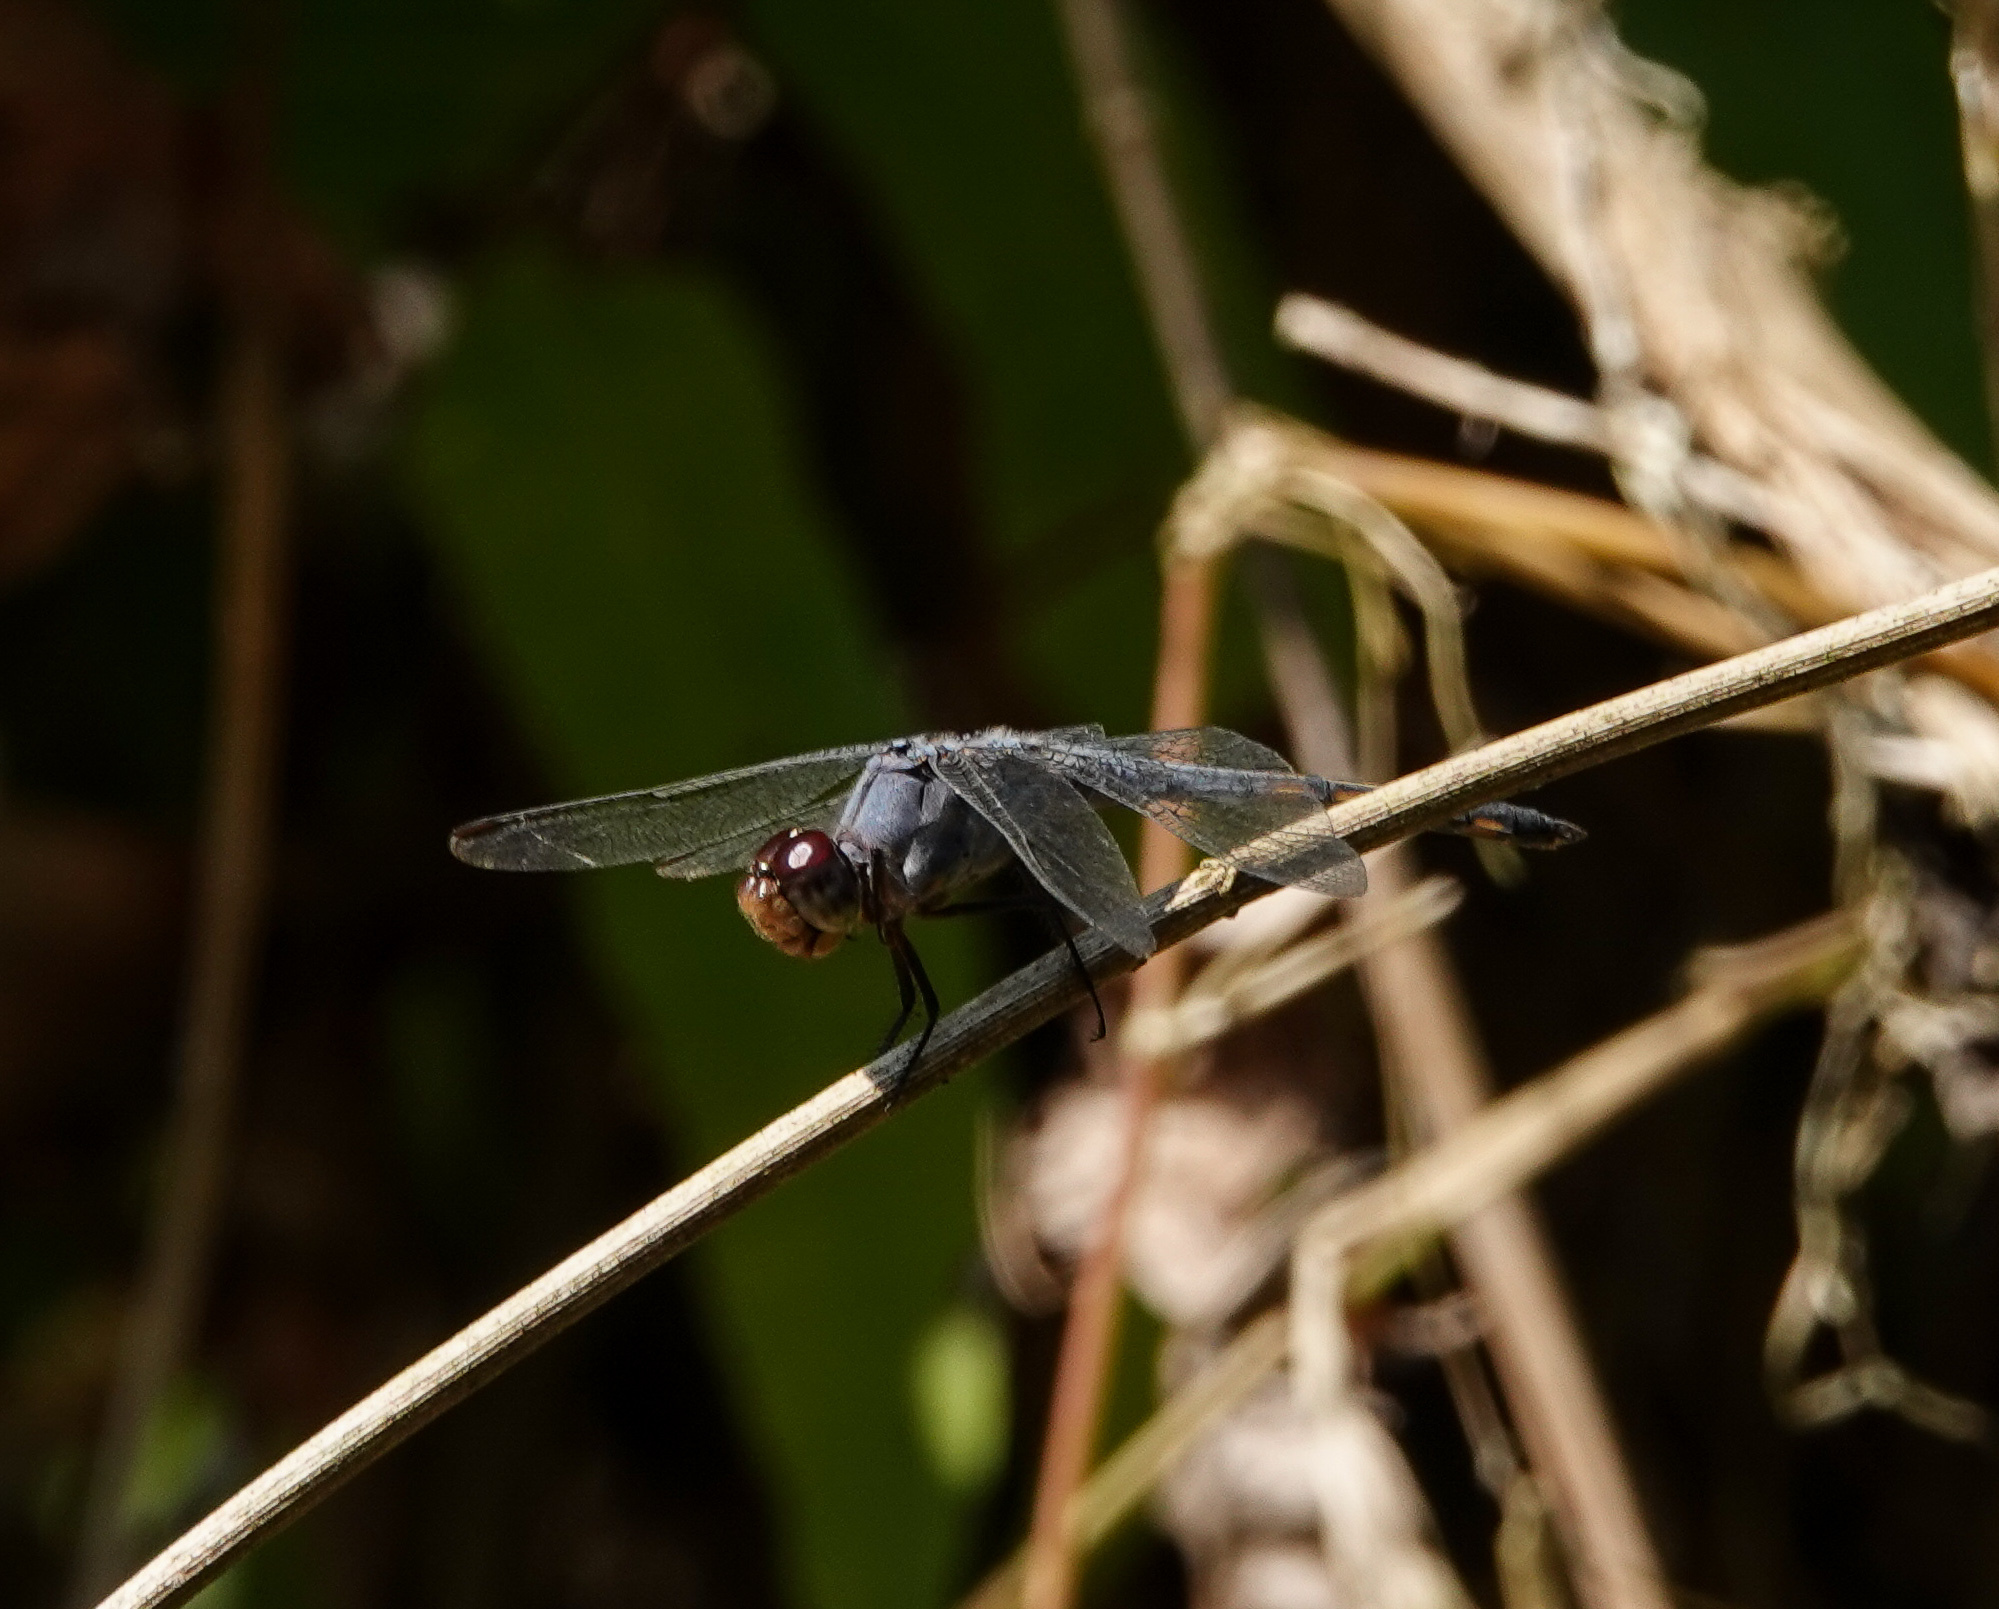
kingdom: Animalia
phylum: Arthropoda
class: Insecta
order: Odonata
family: Libellulidae
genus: Potamarcha
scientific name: Potamarcha congener
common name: Blue chaser
